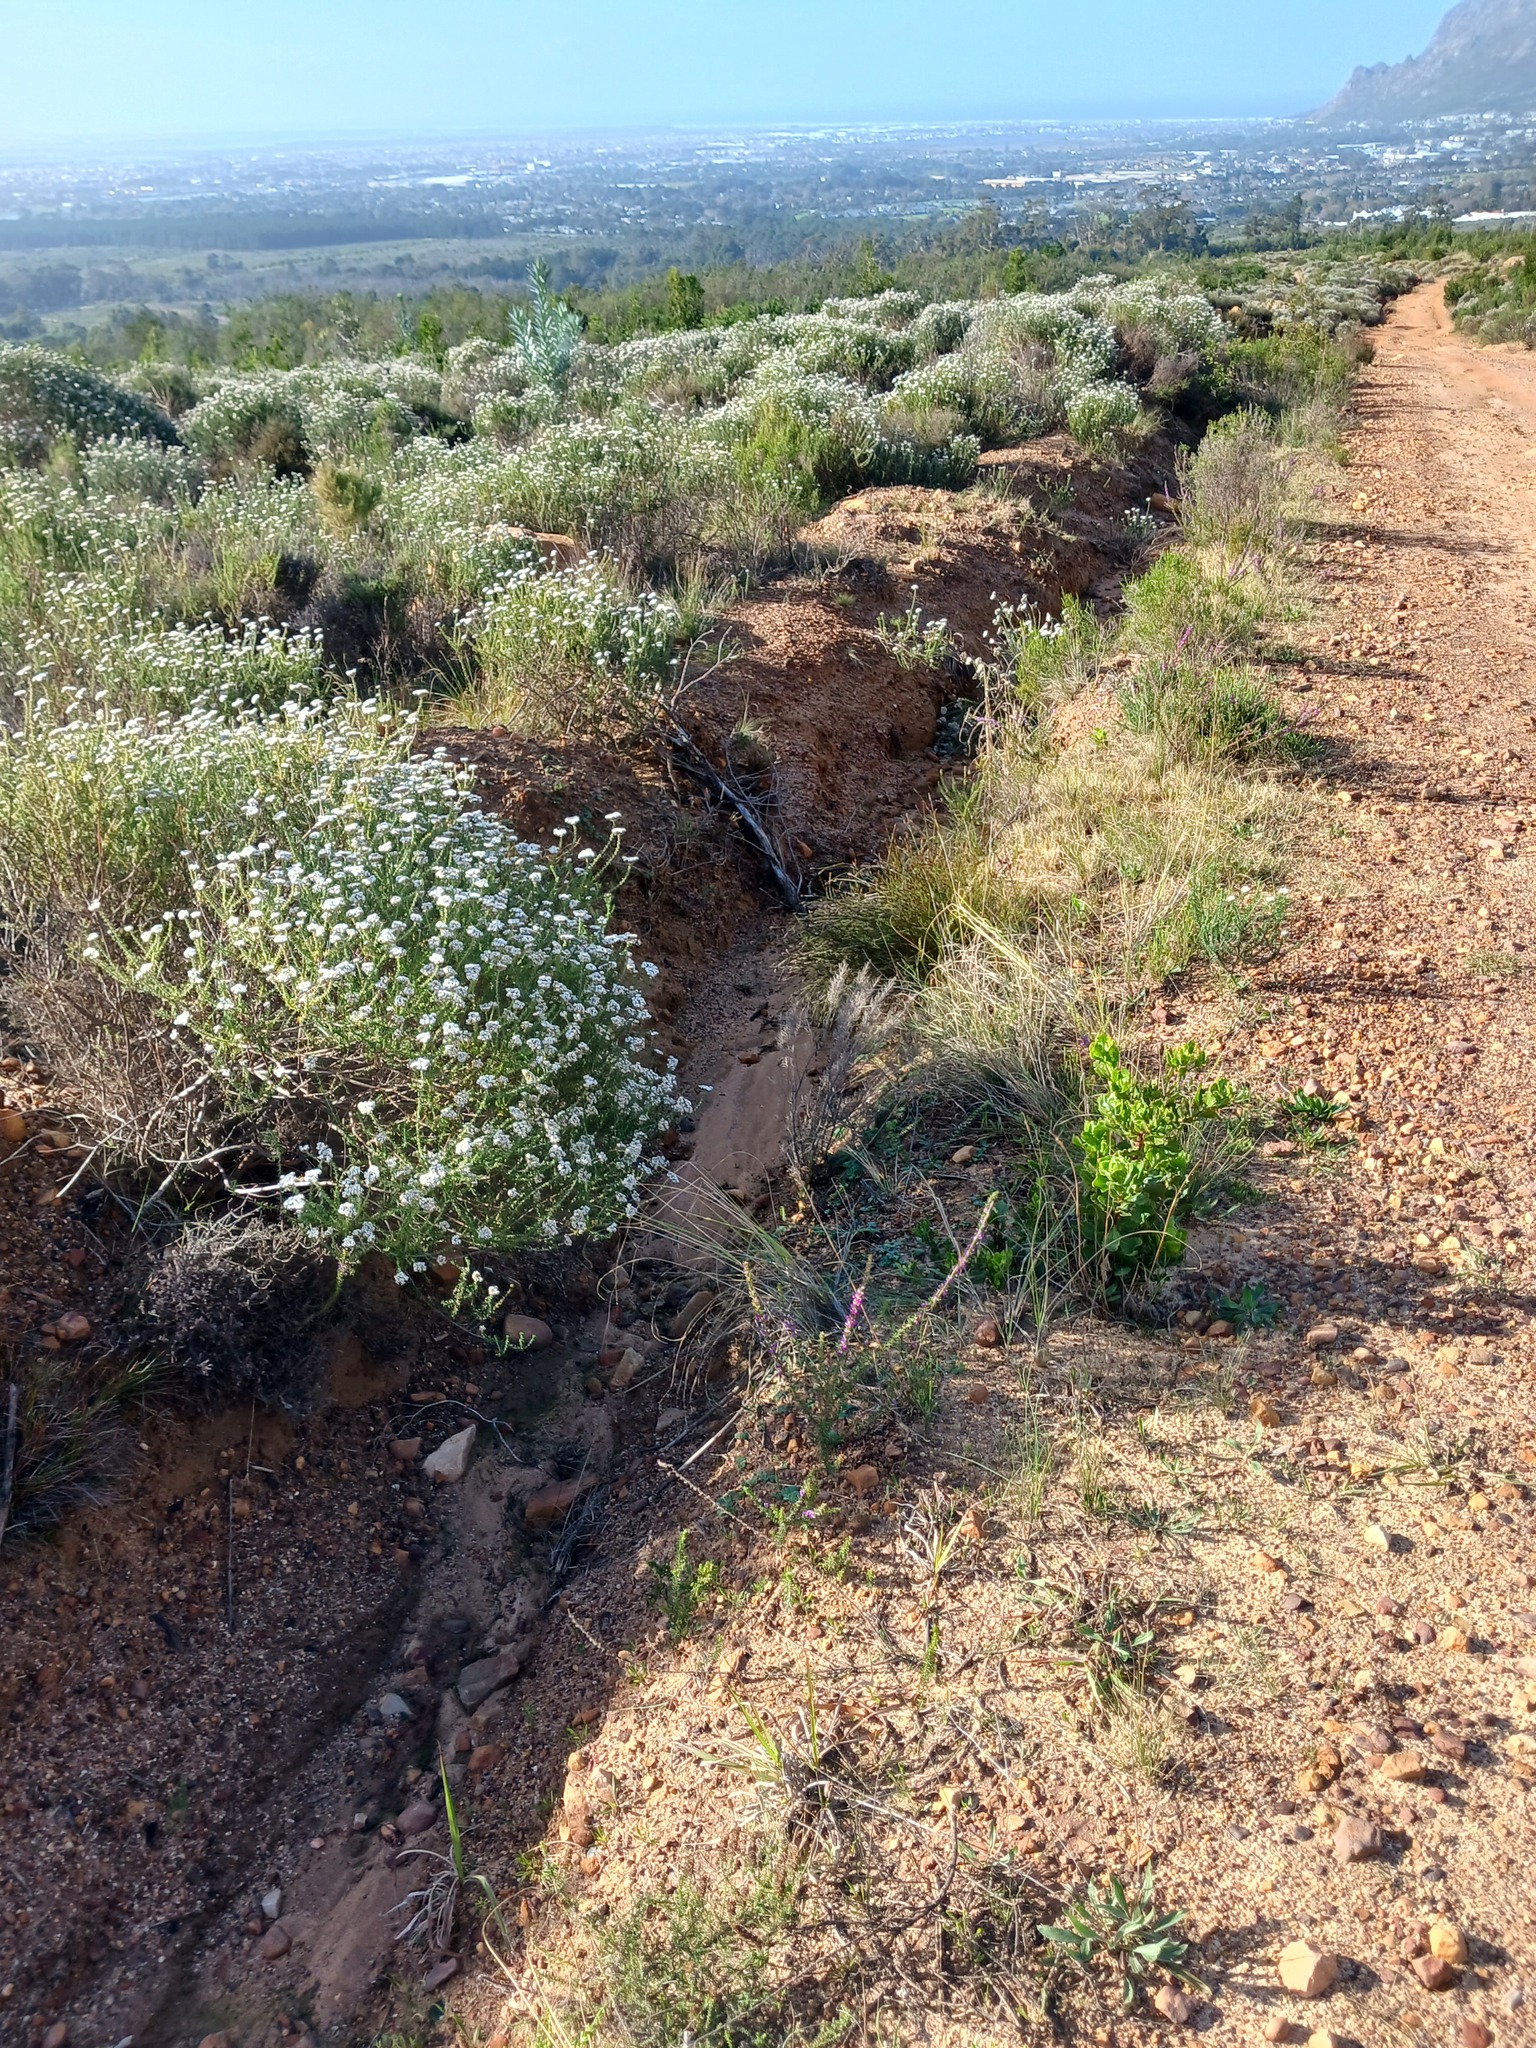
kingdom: Plantae
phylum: Tracheophyta
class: Magnoliopsida
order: Asterales
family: Asteraceae
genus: Metalasia
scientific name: Metalasia densa
